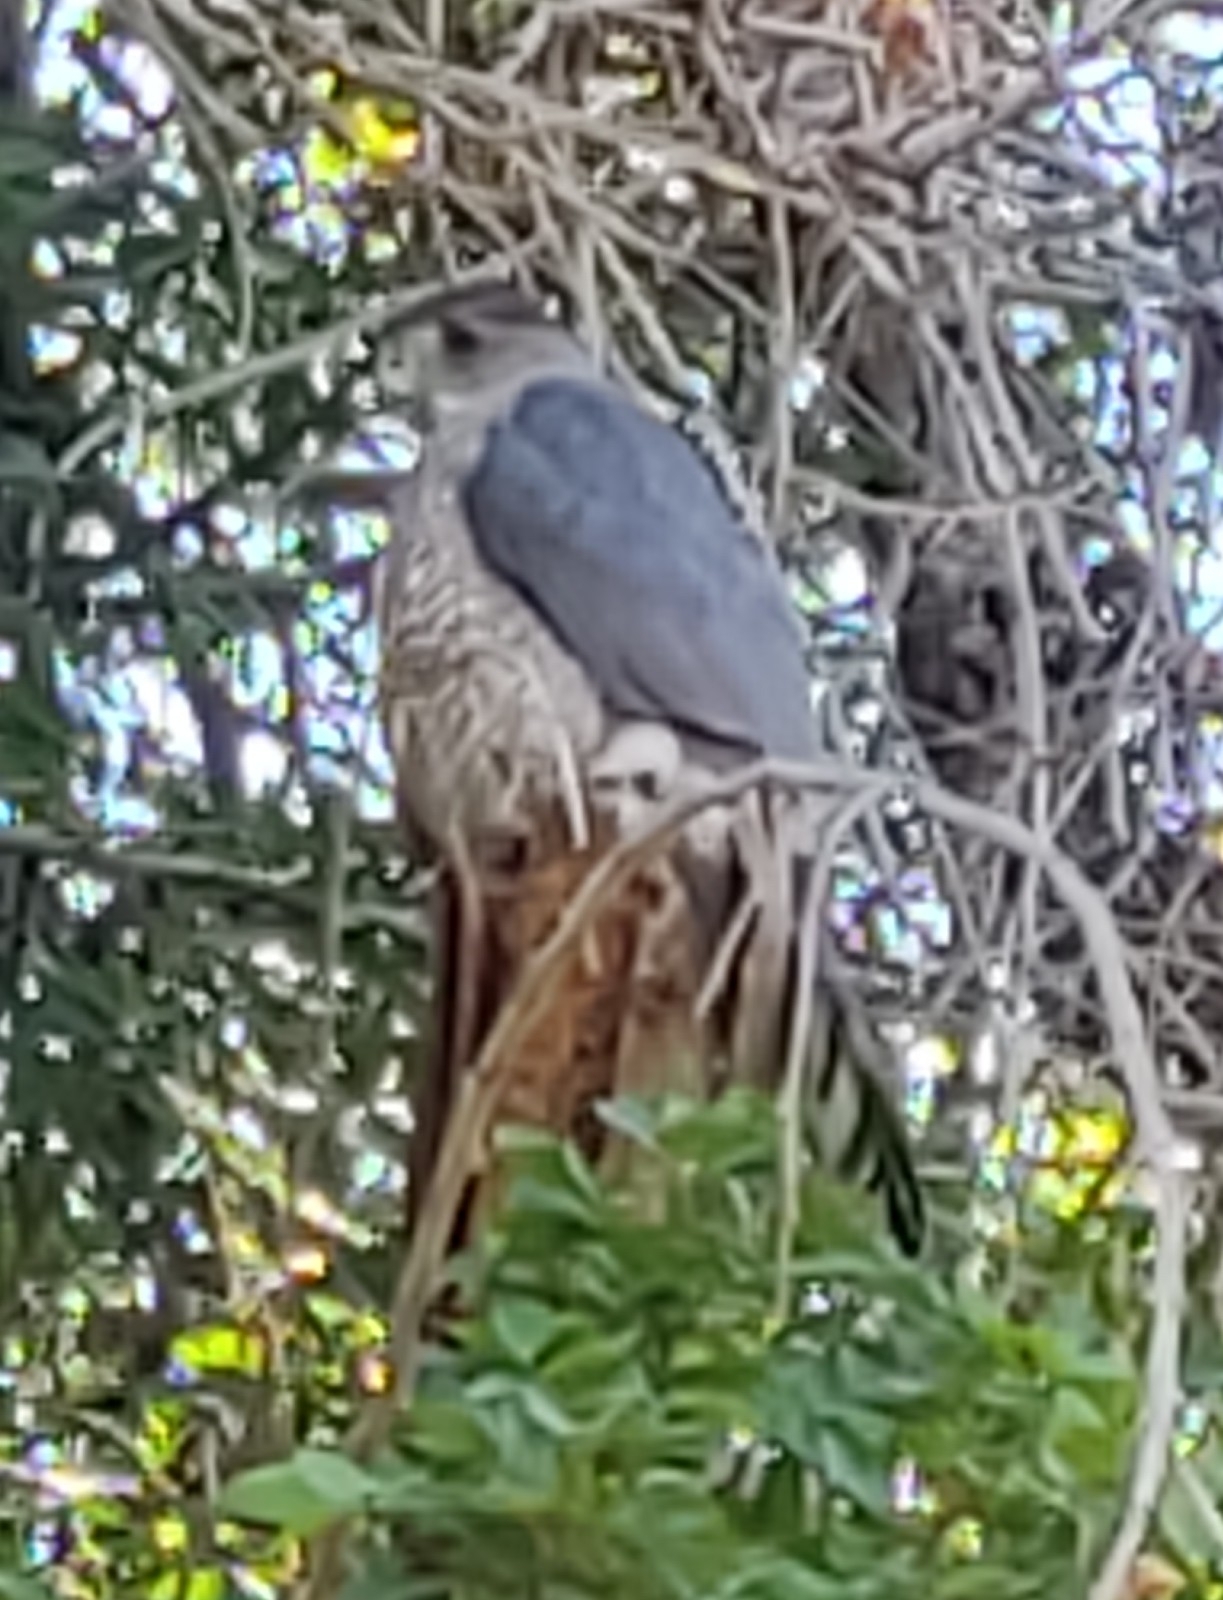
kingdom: Animalia
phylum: Chordata
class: Aves
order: Accipitriformes
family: Accipitridae
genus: Accipiter
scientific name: Accipiter cooperii
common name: Cooper's hawk
